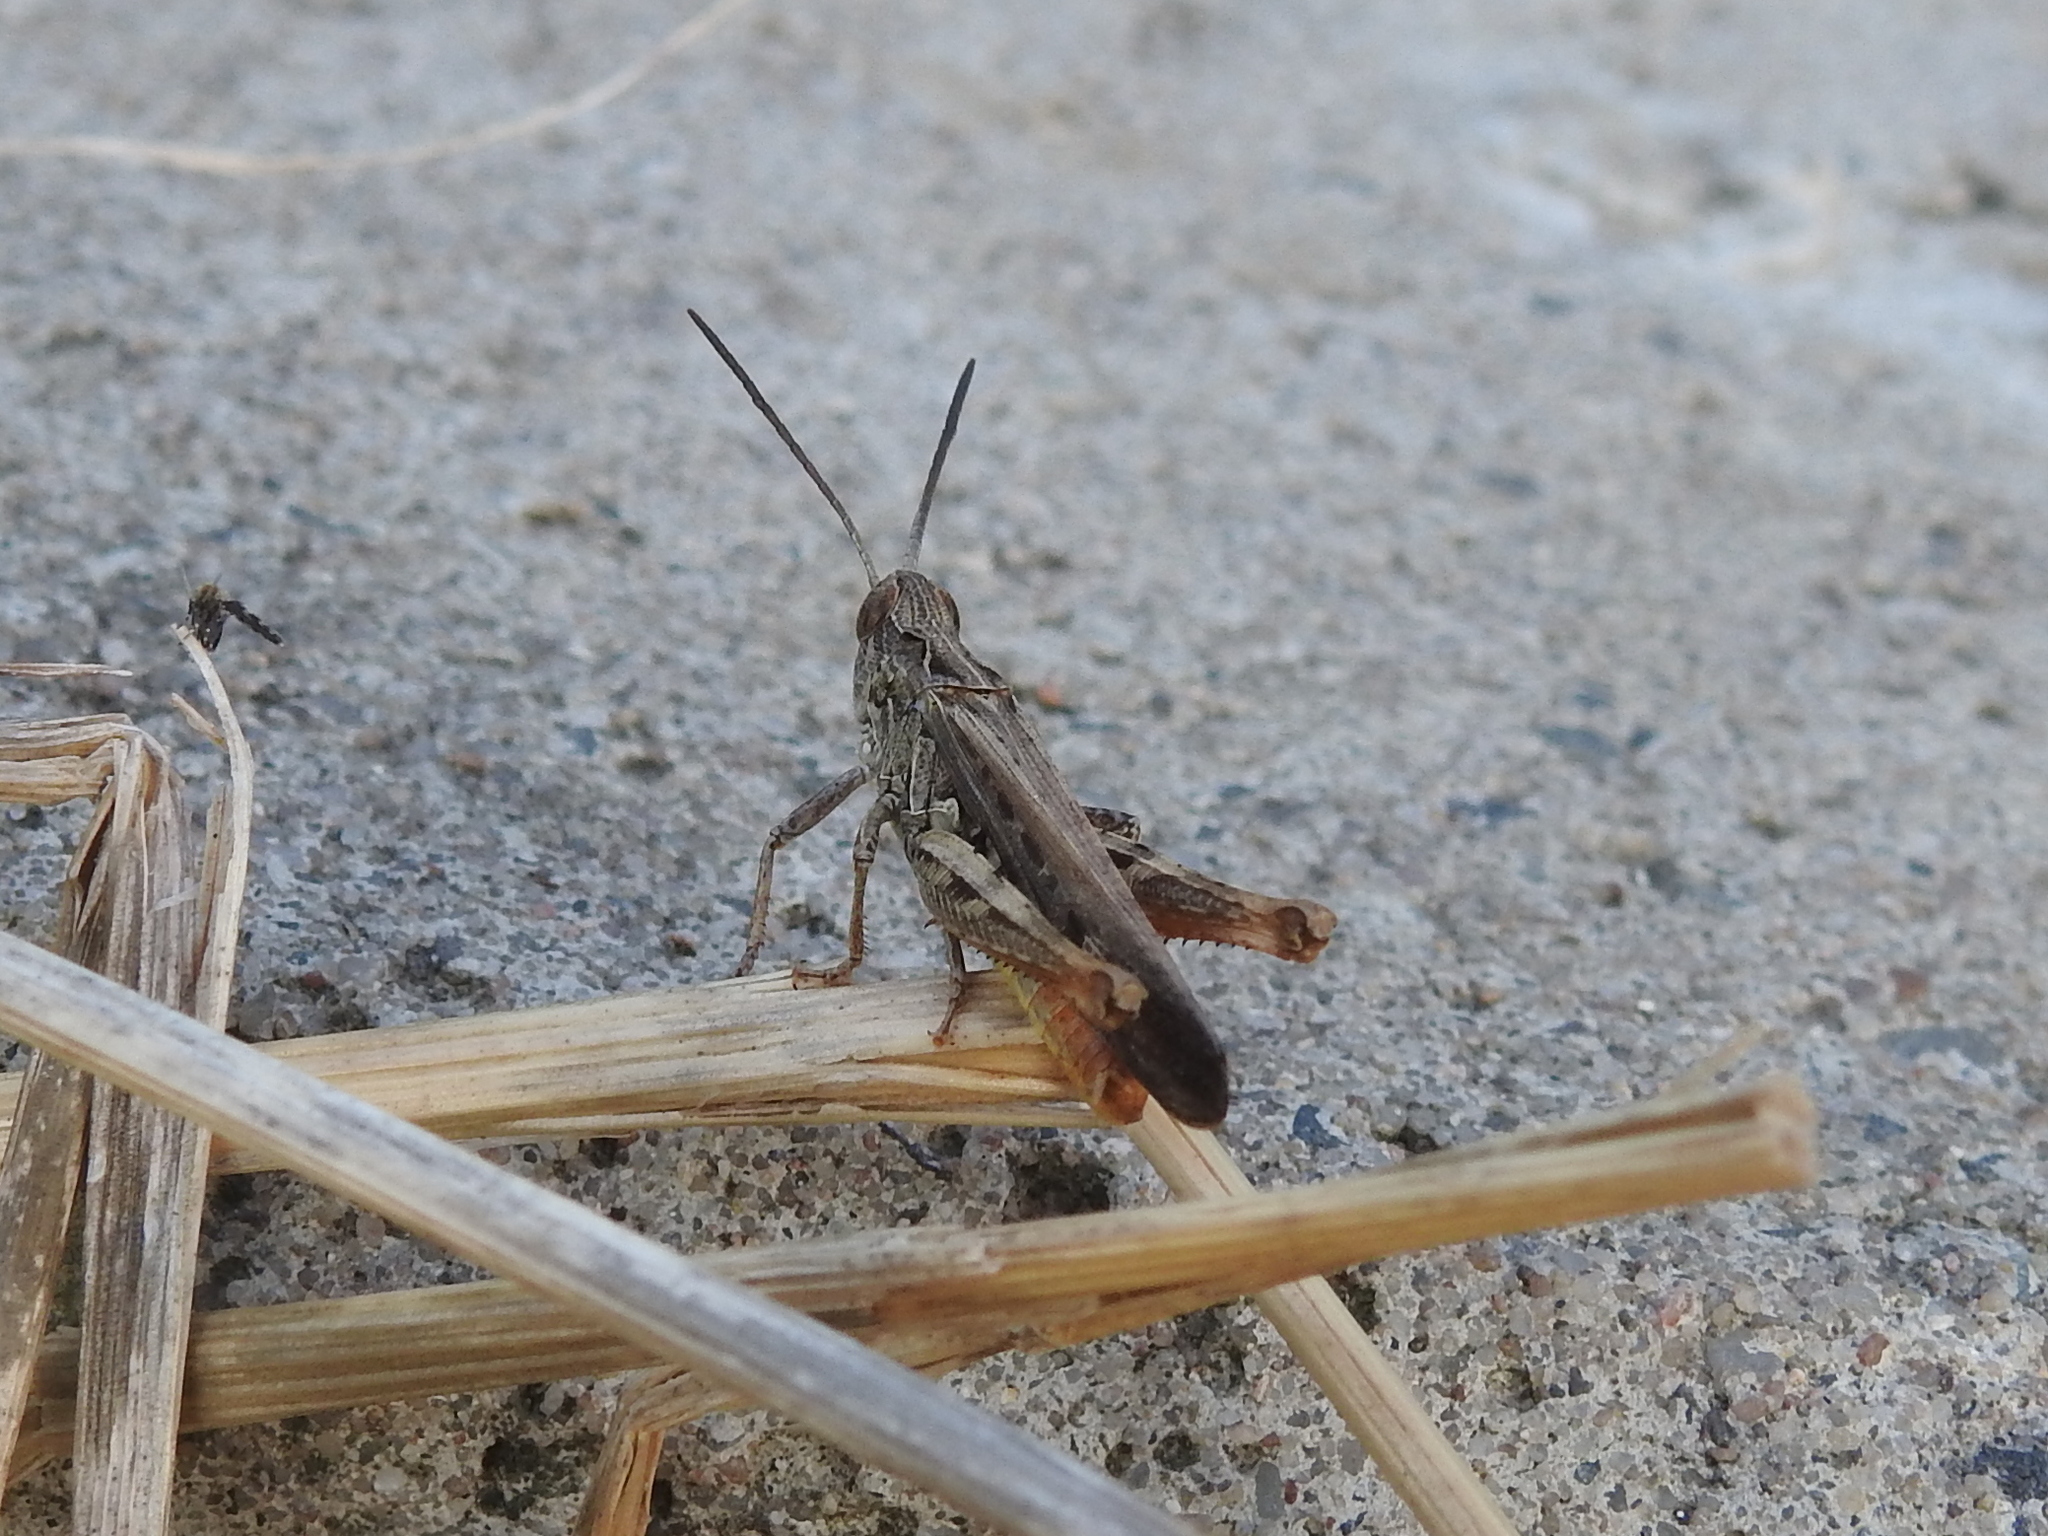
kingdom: Animalia
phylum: Arthropoda
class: Insecta
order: Orthoptera
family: Acrididae
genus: Chorthippus
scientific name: Chorthippus brunneus
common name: Field grasshopper
